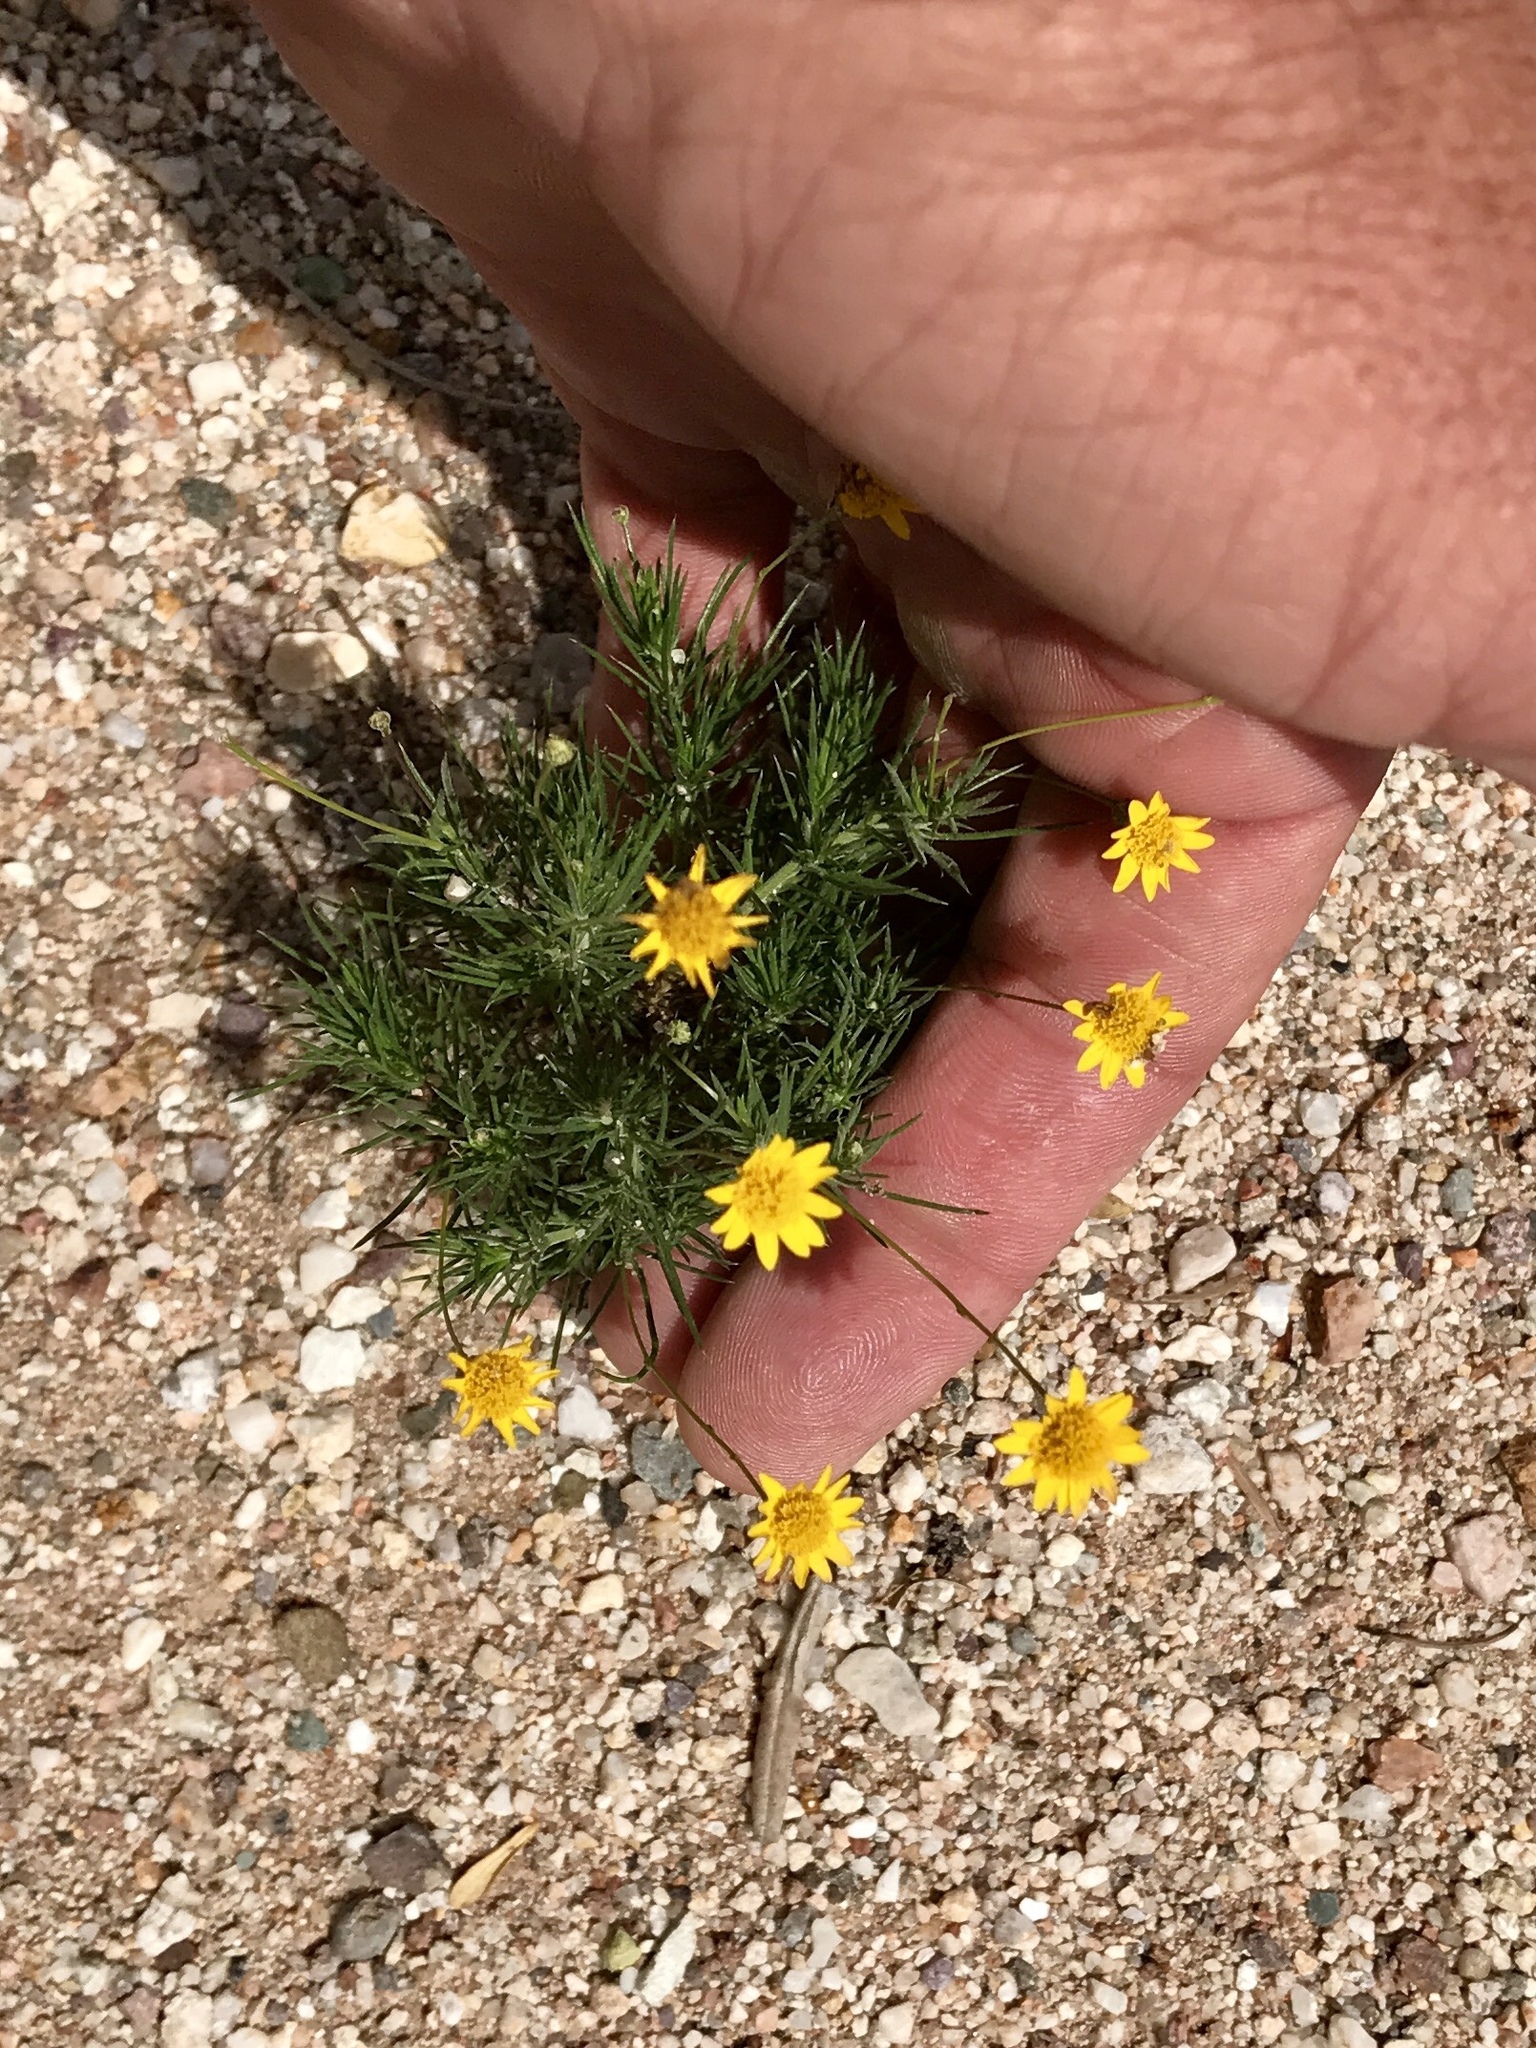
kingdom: Plantae
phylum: Tracheophyta
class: Magnoliopsida
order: Asterales
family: Asteraceae
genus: Thymophylla
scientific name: Thymophylla pentachaeta
